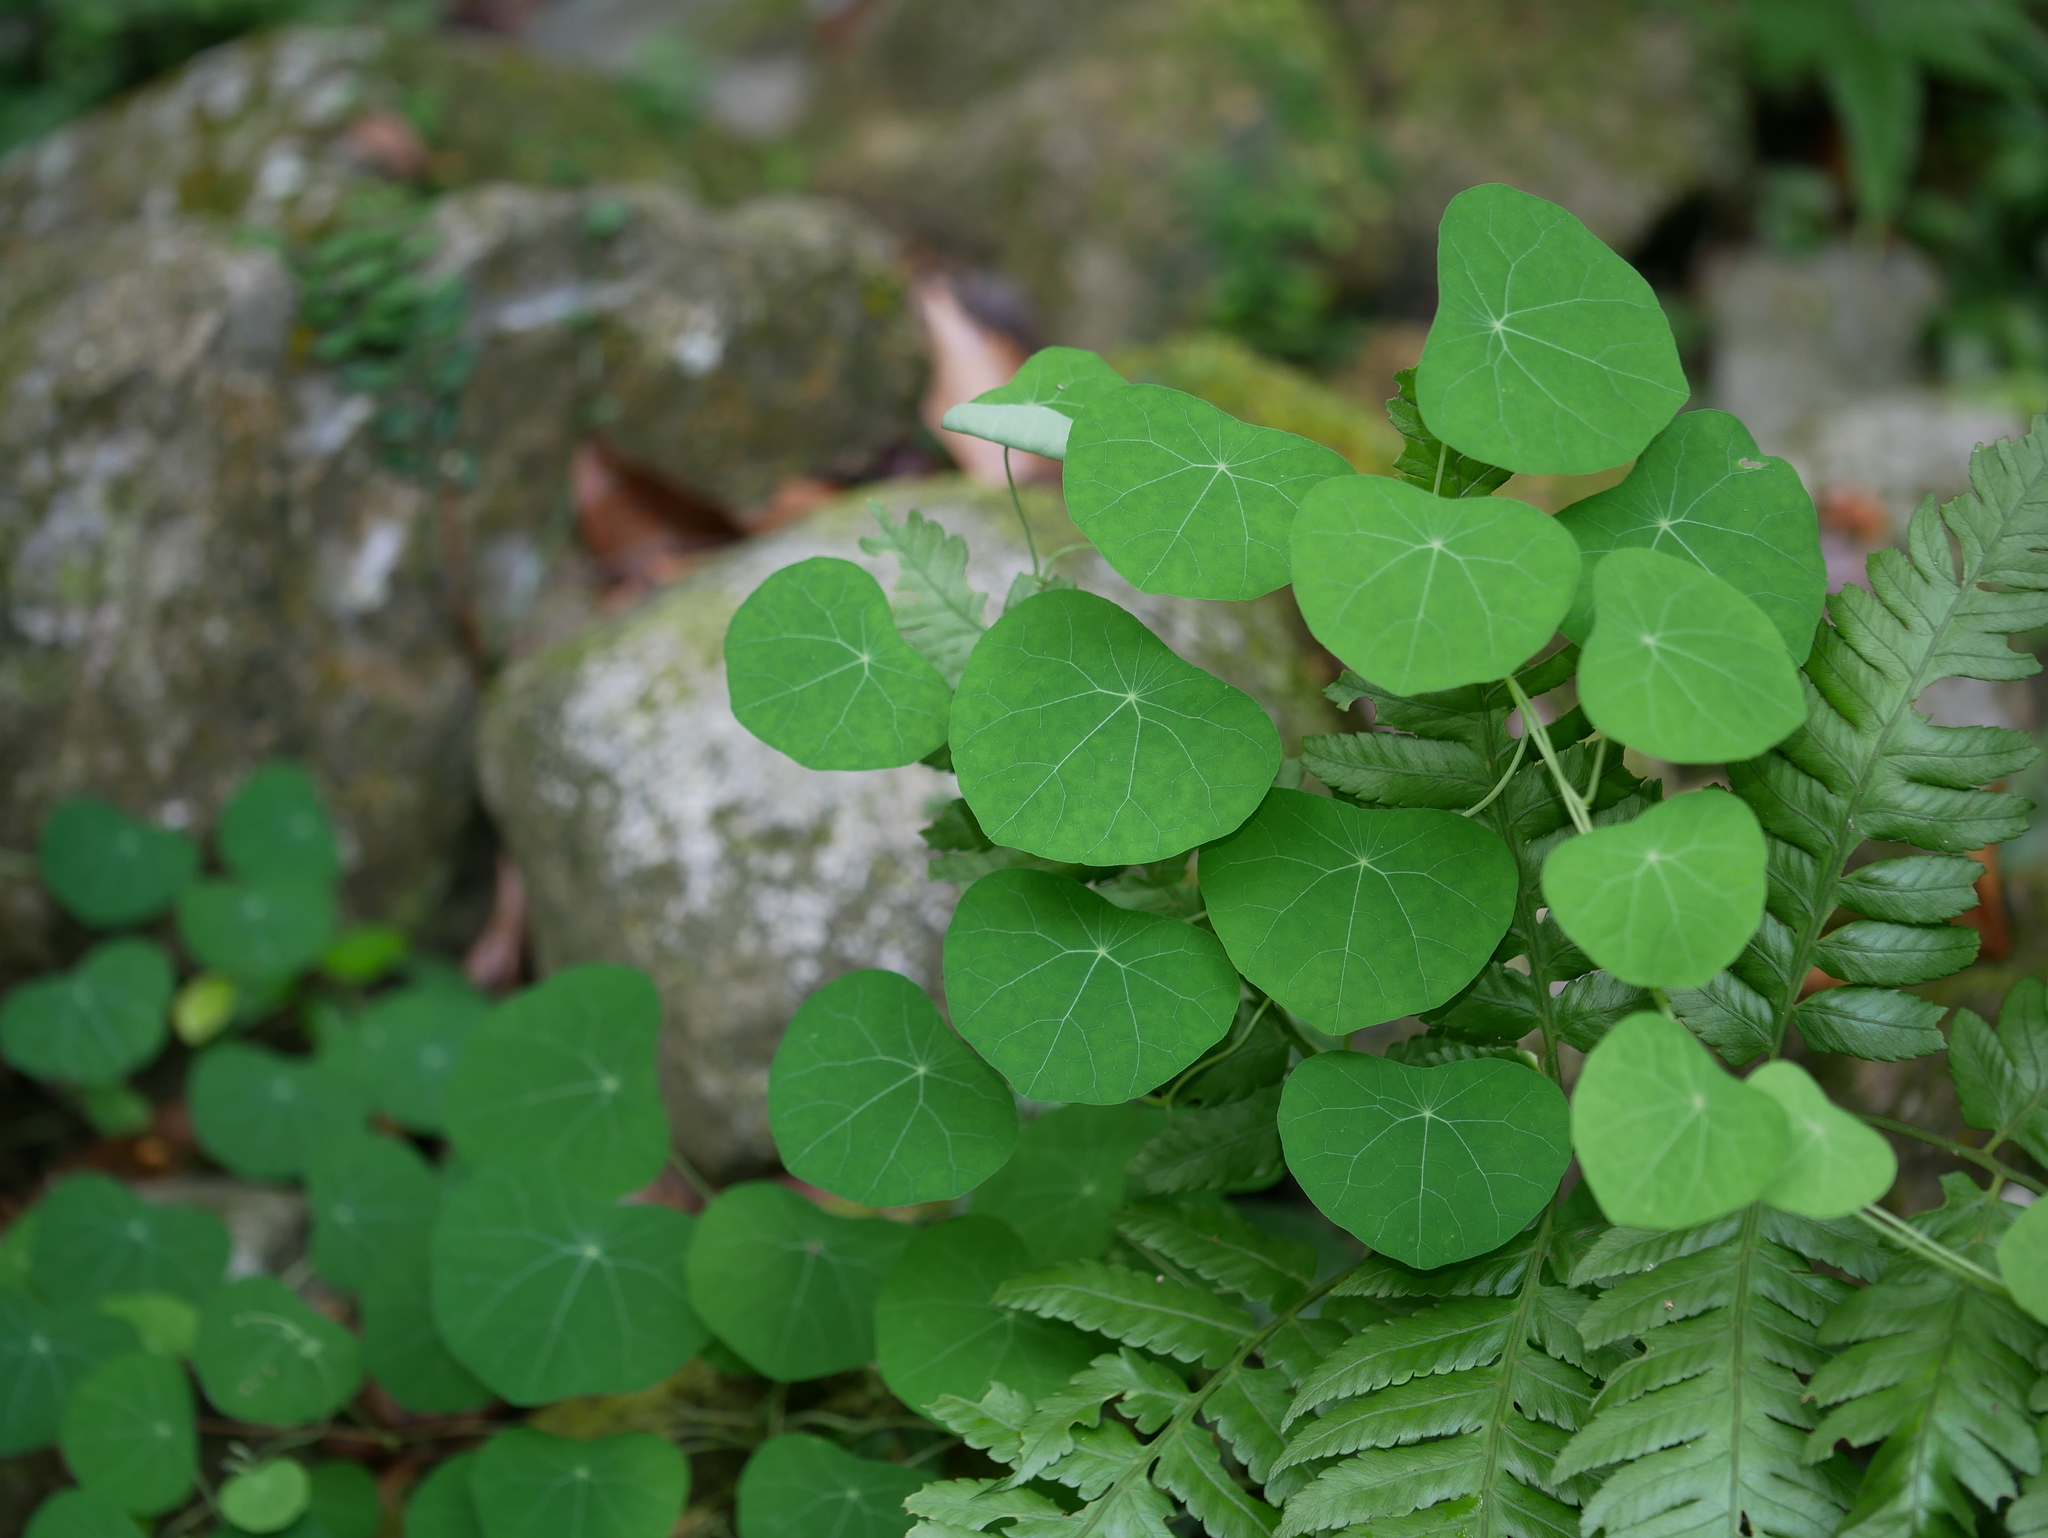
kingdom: Plantae
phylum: Tracheophyta
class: Magnoliopsida
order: Ranunculales
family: Menispermaceae
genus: Stephania
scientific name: Stephania cephalantha
